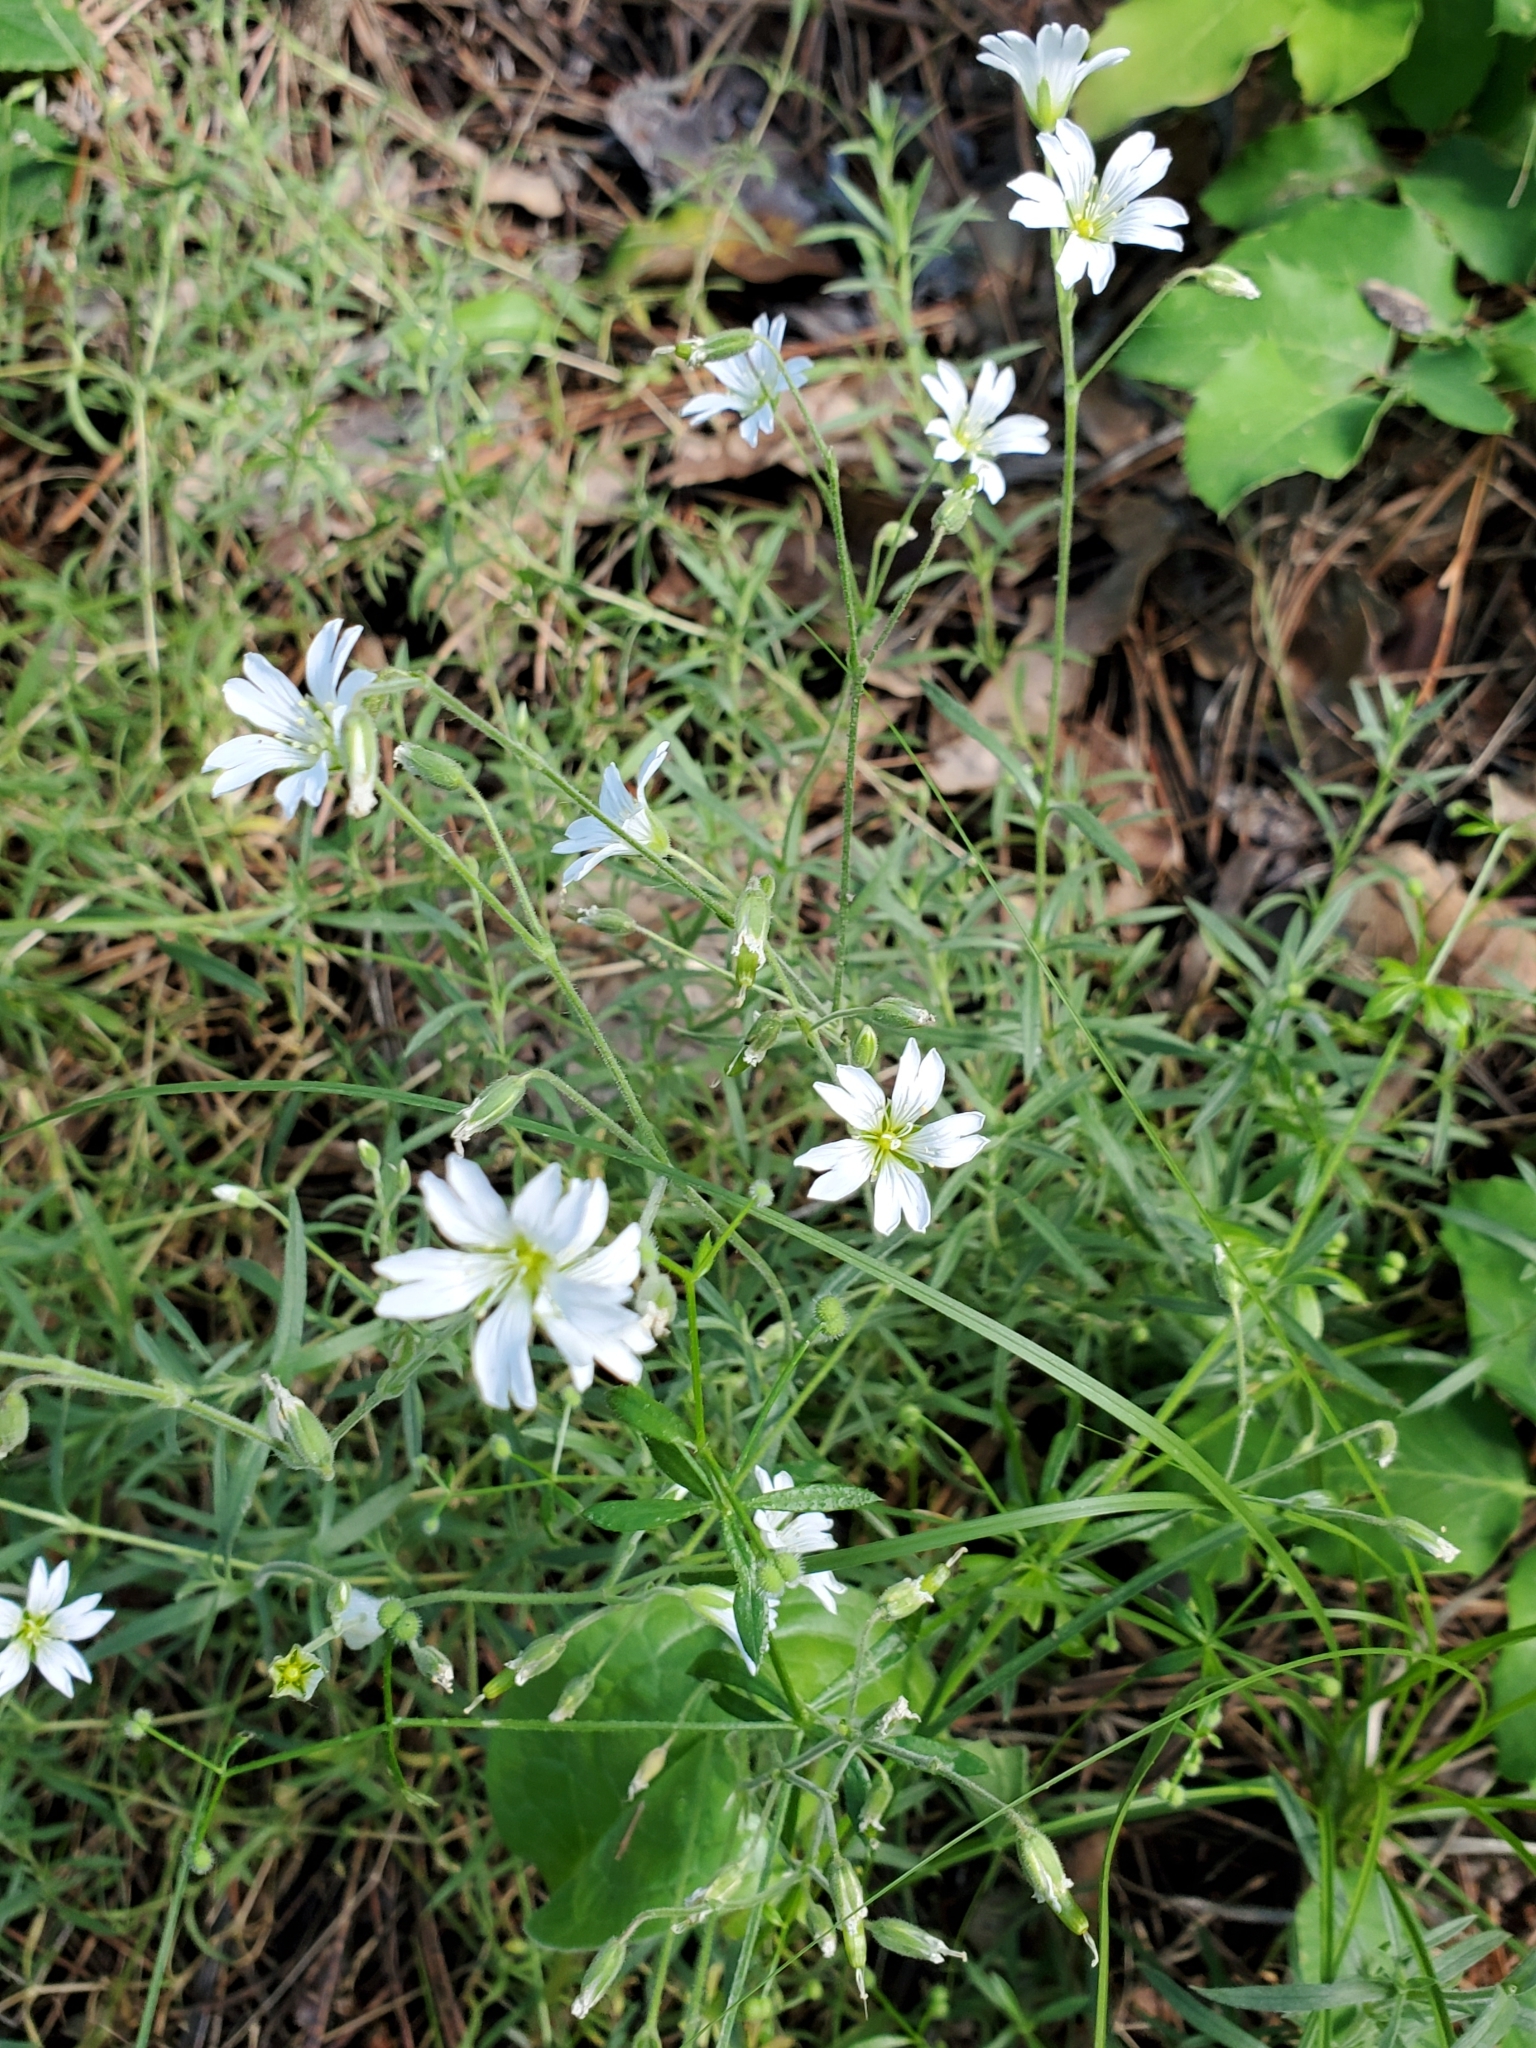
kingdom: Plantae
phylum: Tracheophyta
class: Magnoliopsida
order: Caryophyllales
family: Caryophyllaceae
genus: Cerastium
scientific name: Cerastium arvense
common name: Field mouse-ear
